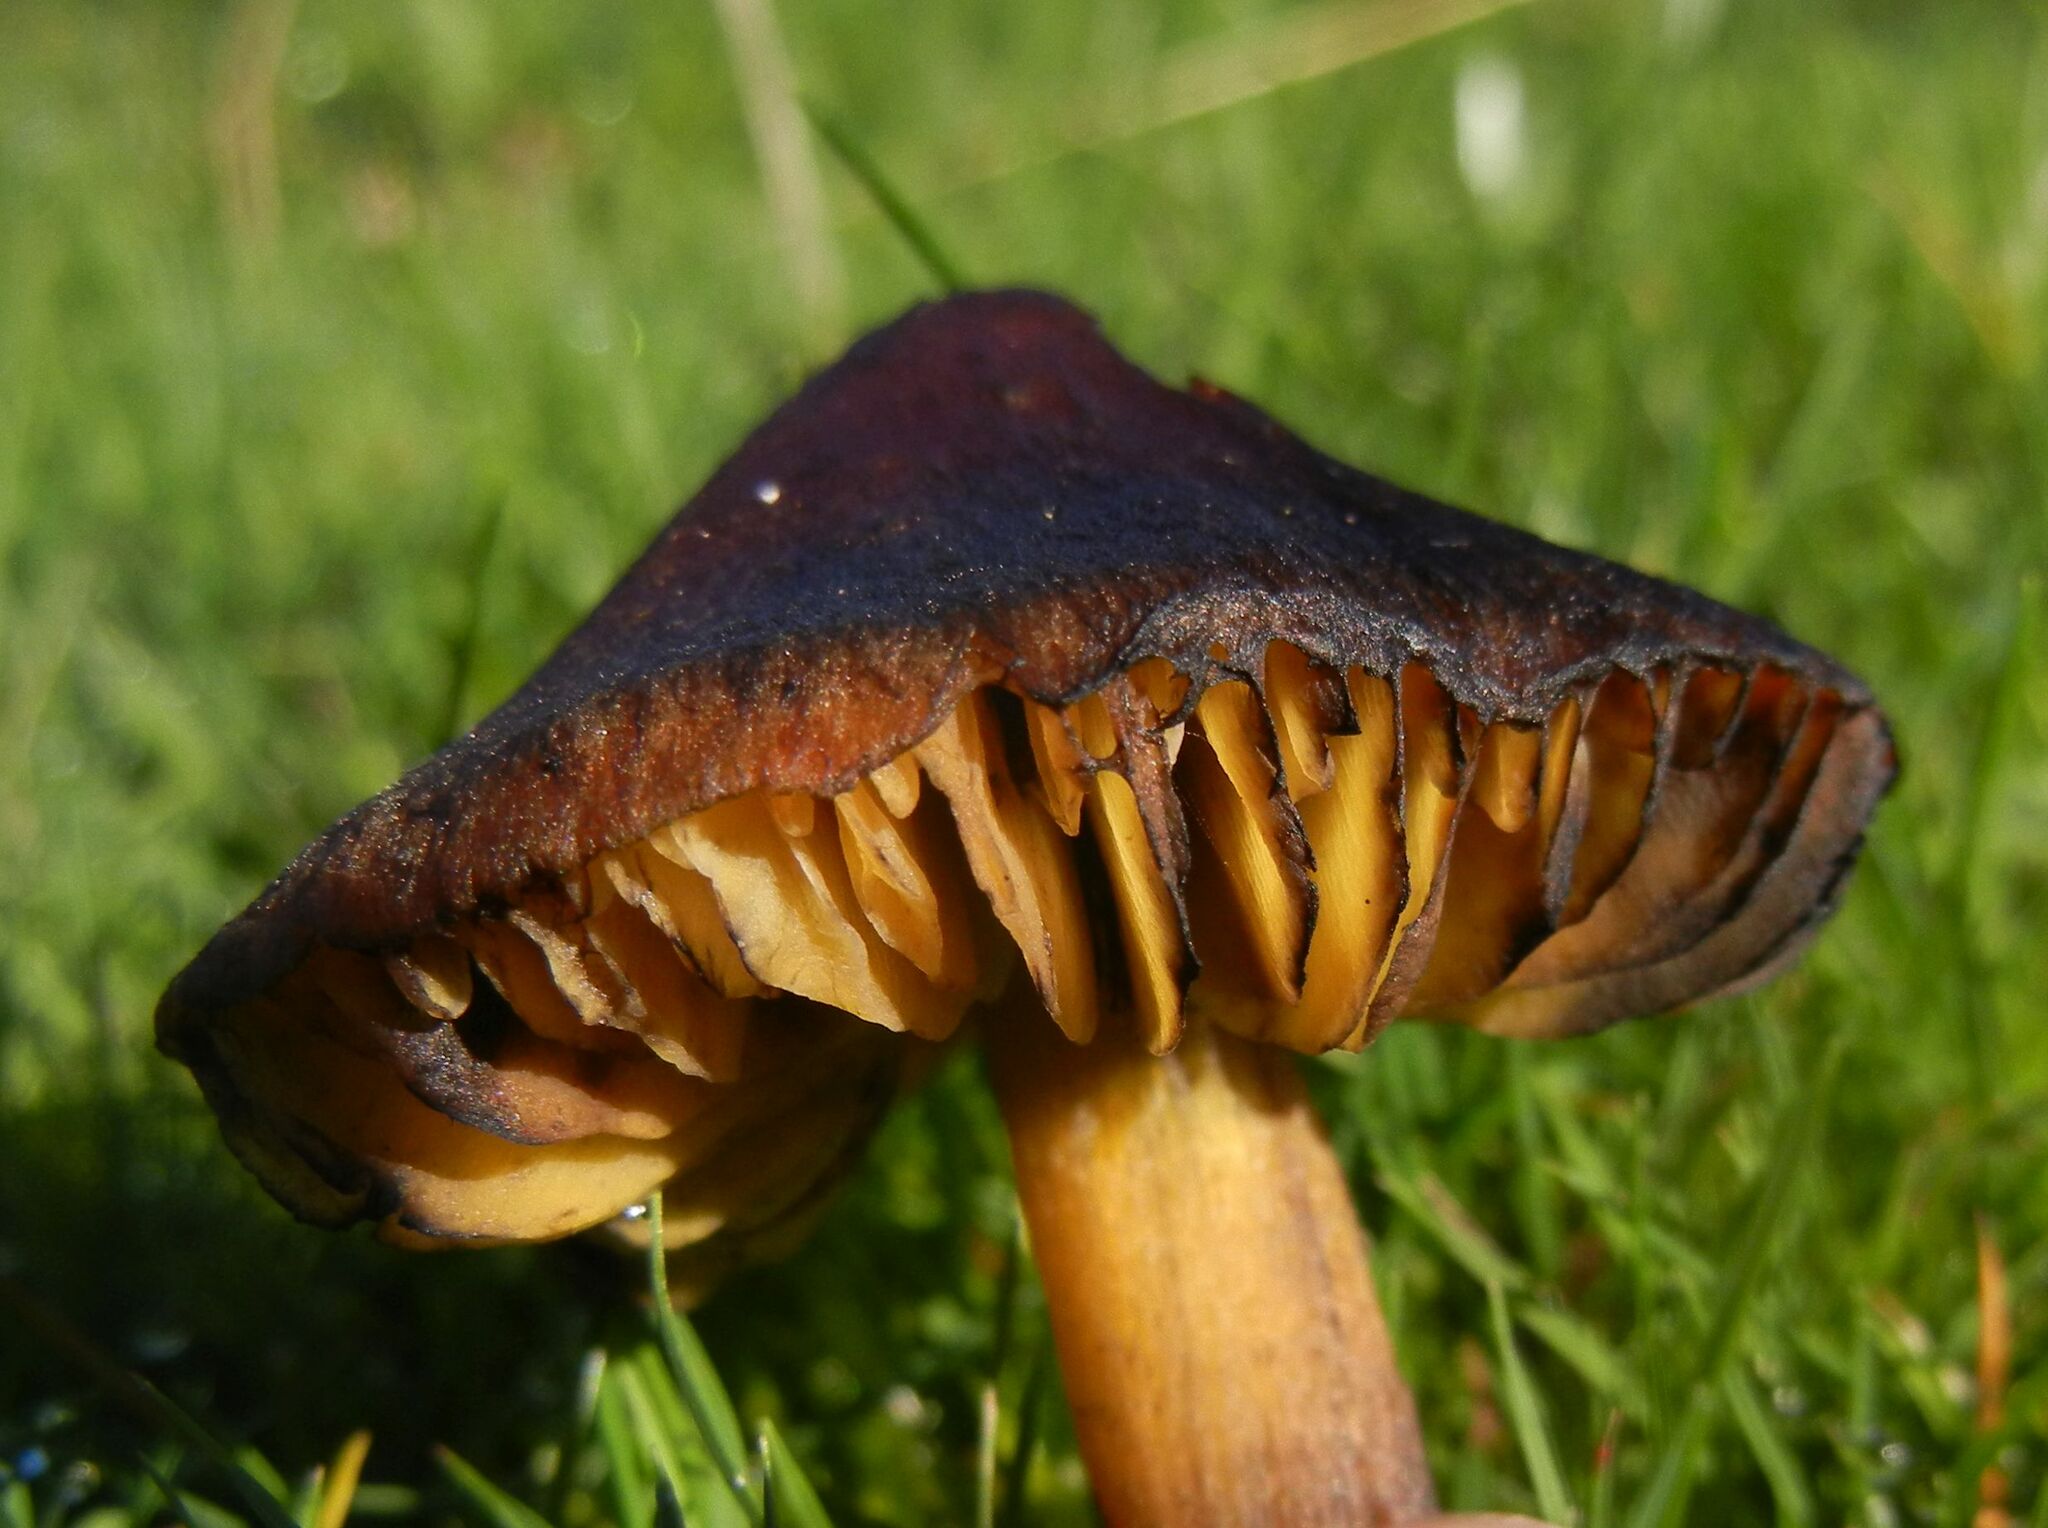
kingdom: Fungi
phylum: Basidiomycota
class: Agaricomycetes
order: Agaricales
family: Hygrophoraceae
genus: Hygrocybe
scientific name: Hygrocybe conica
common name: Blackening wax-cap
